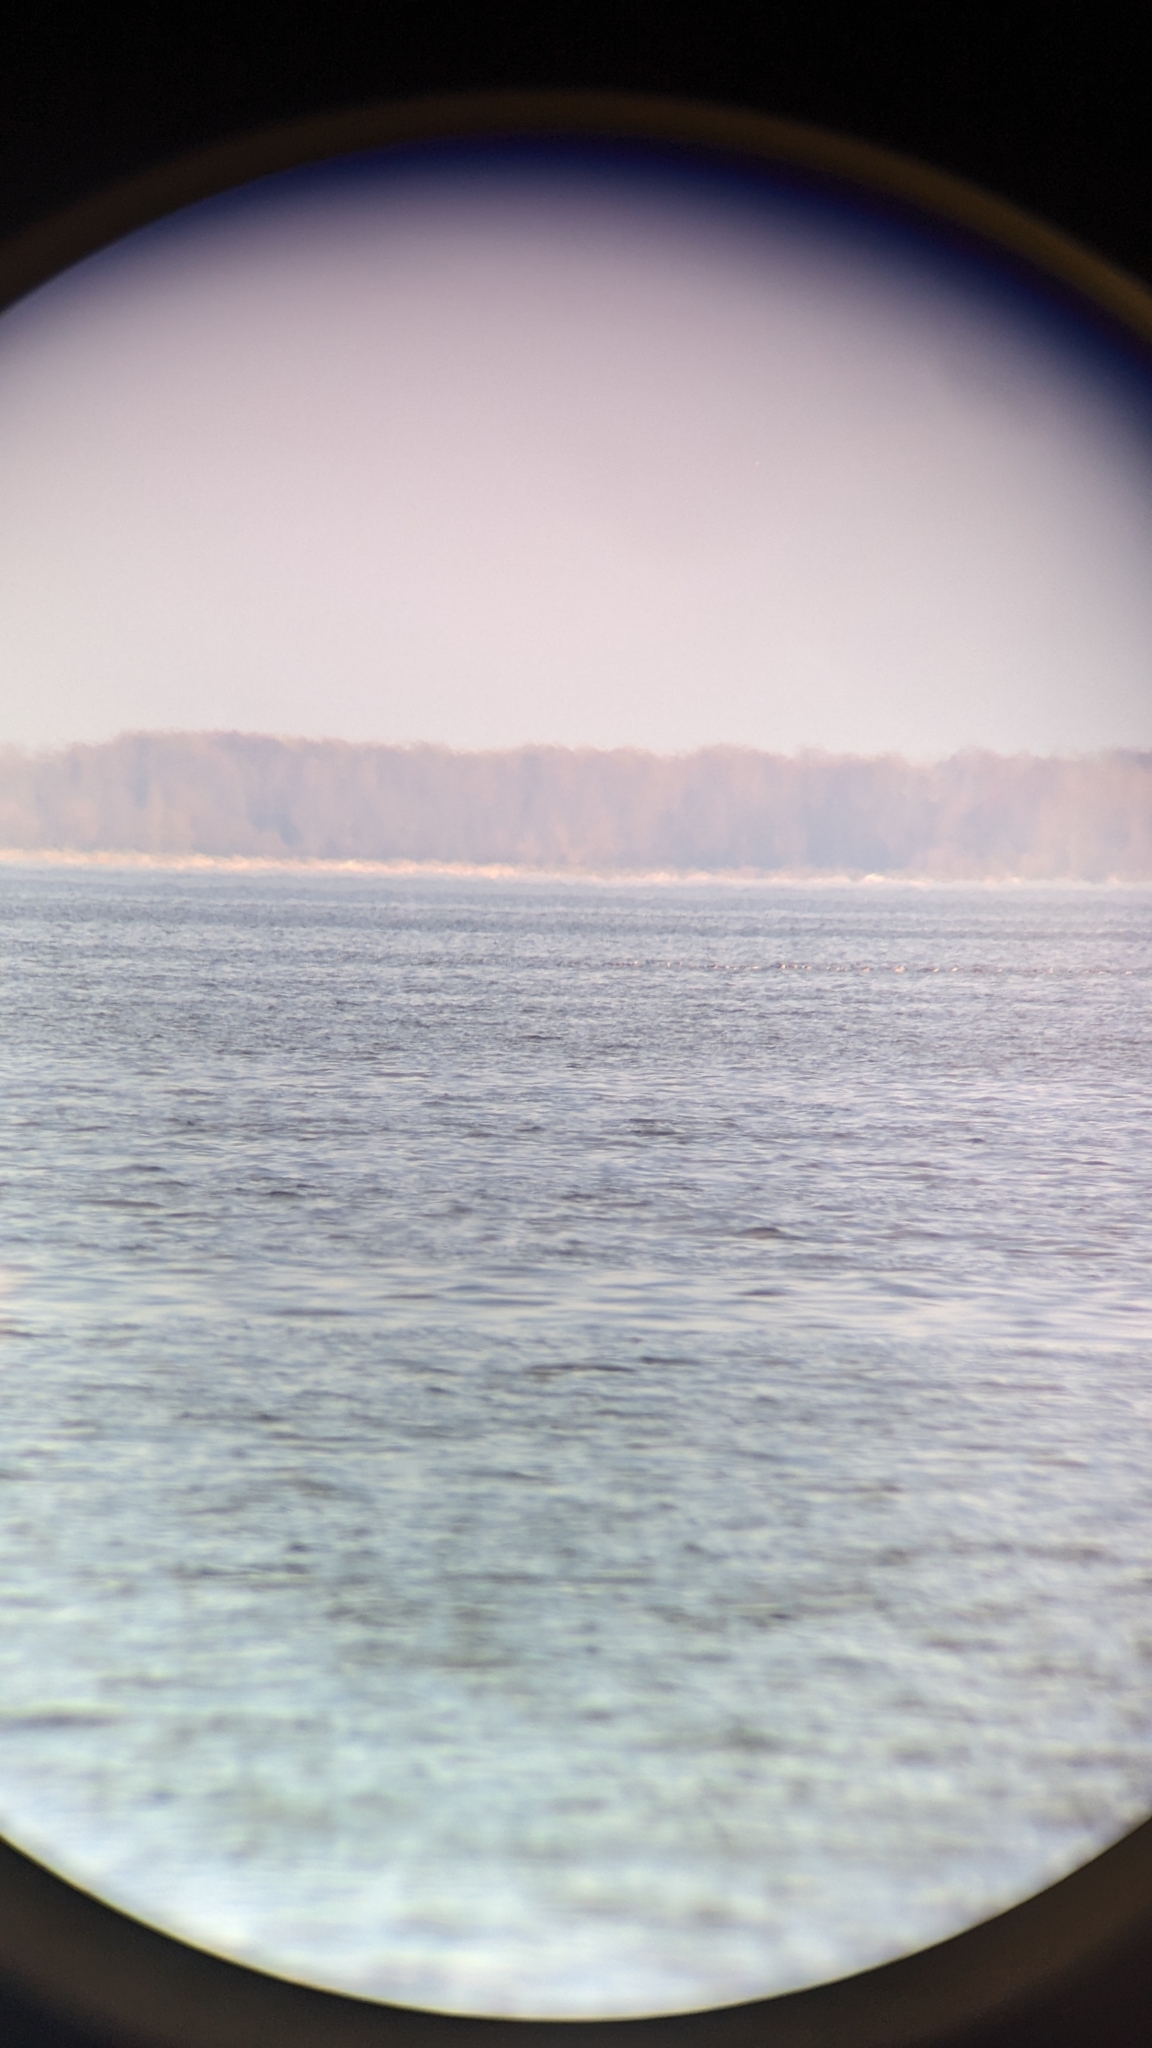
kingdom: Animalia
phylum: Chordata
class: Aves
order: Anseriformes
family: Anatidae
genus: Clangula
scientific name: Clangula hyemalis
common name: Long-tailed duck
